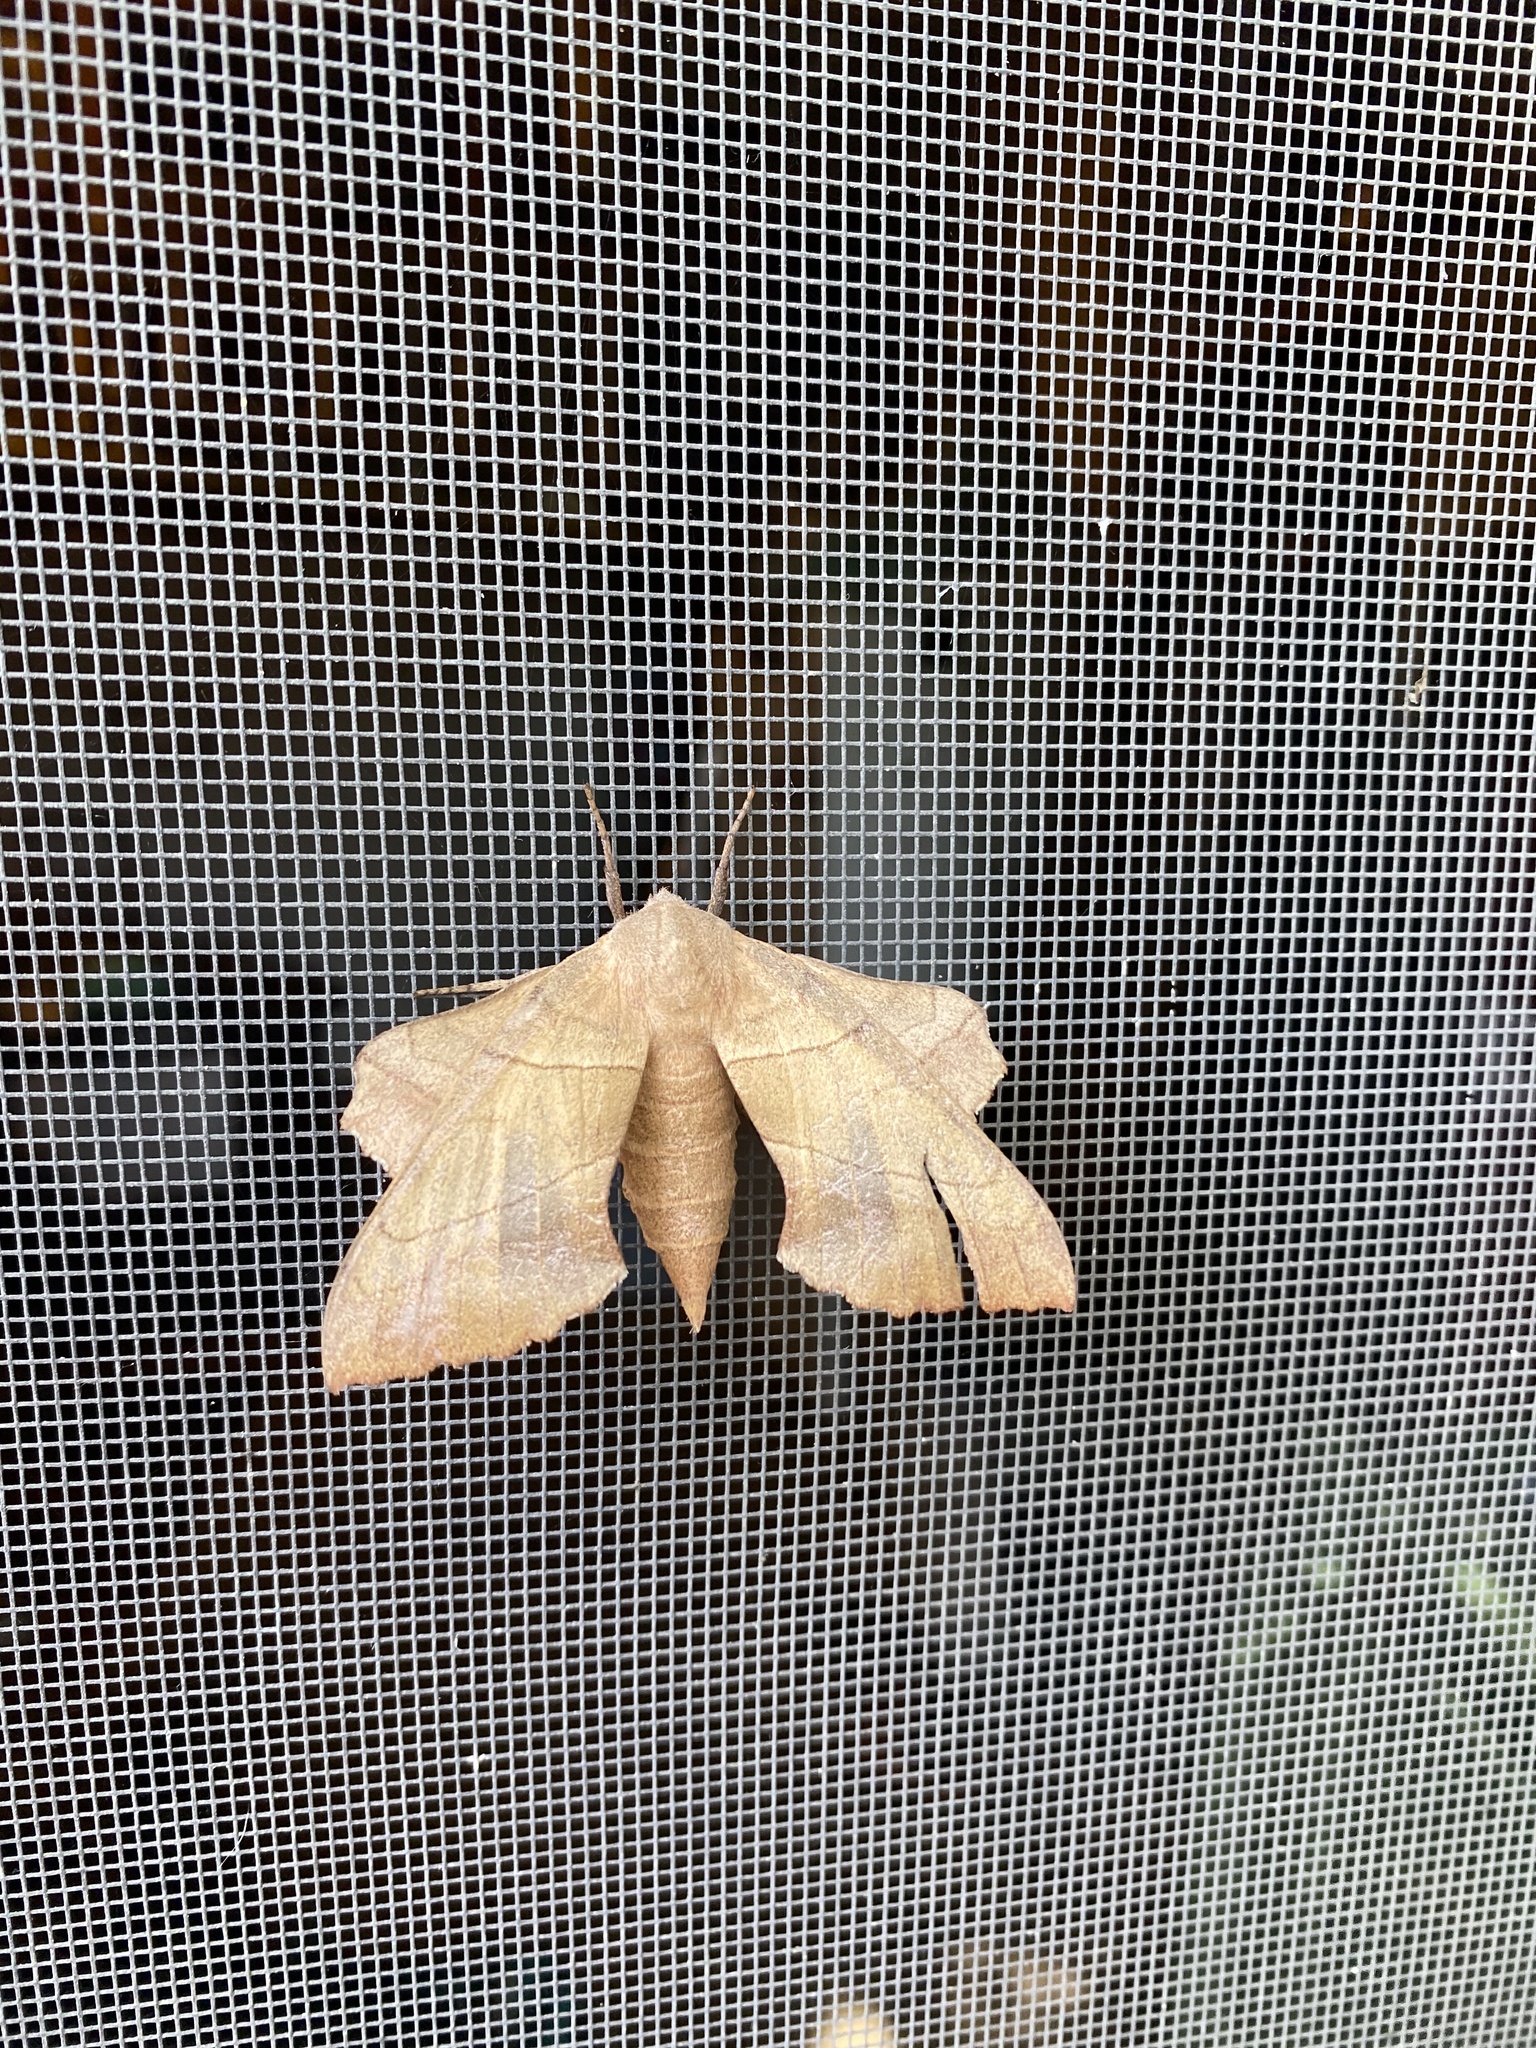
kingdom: Animalia
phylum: Arthropoda
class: Insecta
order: Lepidoptera
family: Sphingidae
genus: Amorpha
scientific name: Amorpha juglandis
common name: Walnut sphinx
